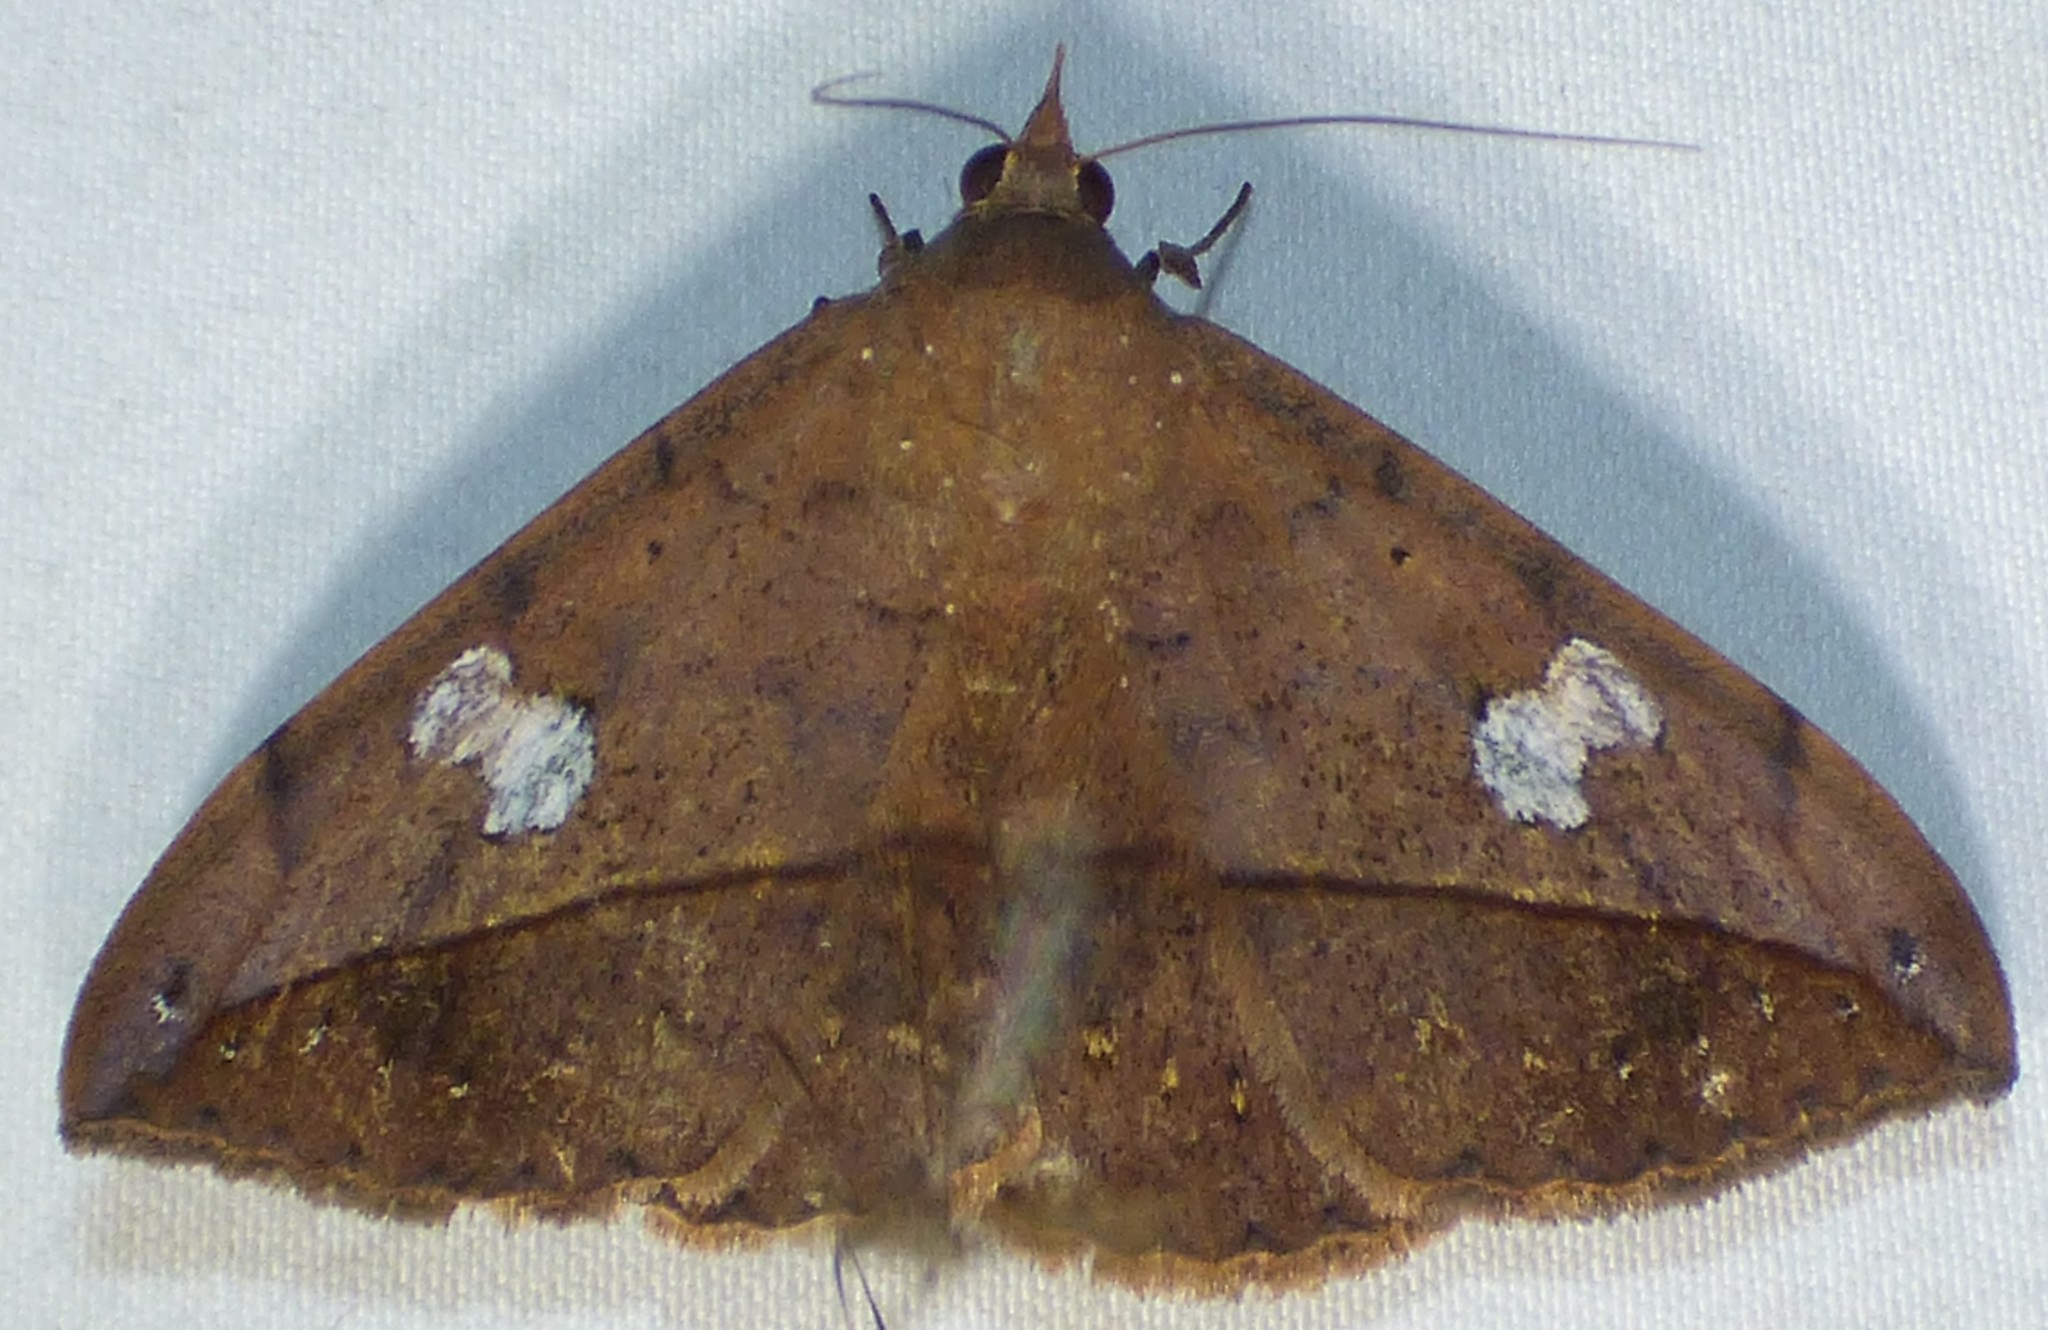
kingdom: Animalia
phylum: Arthropoda
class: Insecta
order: Lepidoptera
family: Erebidae
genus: Anticarsia
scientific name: Anticarsia gemmatalis
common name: Cutworm moth
